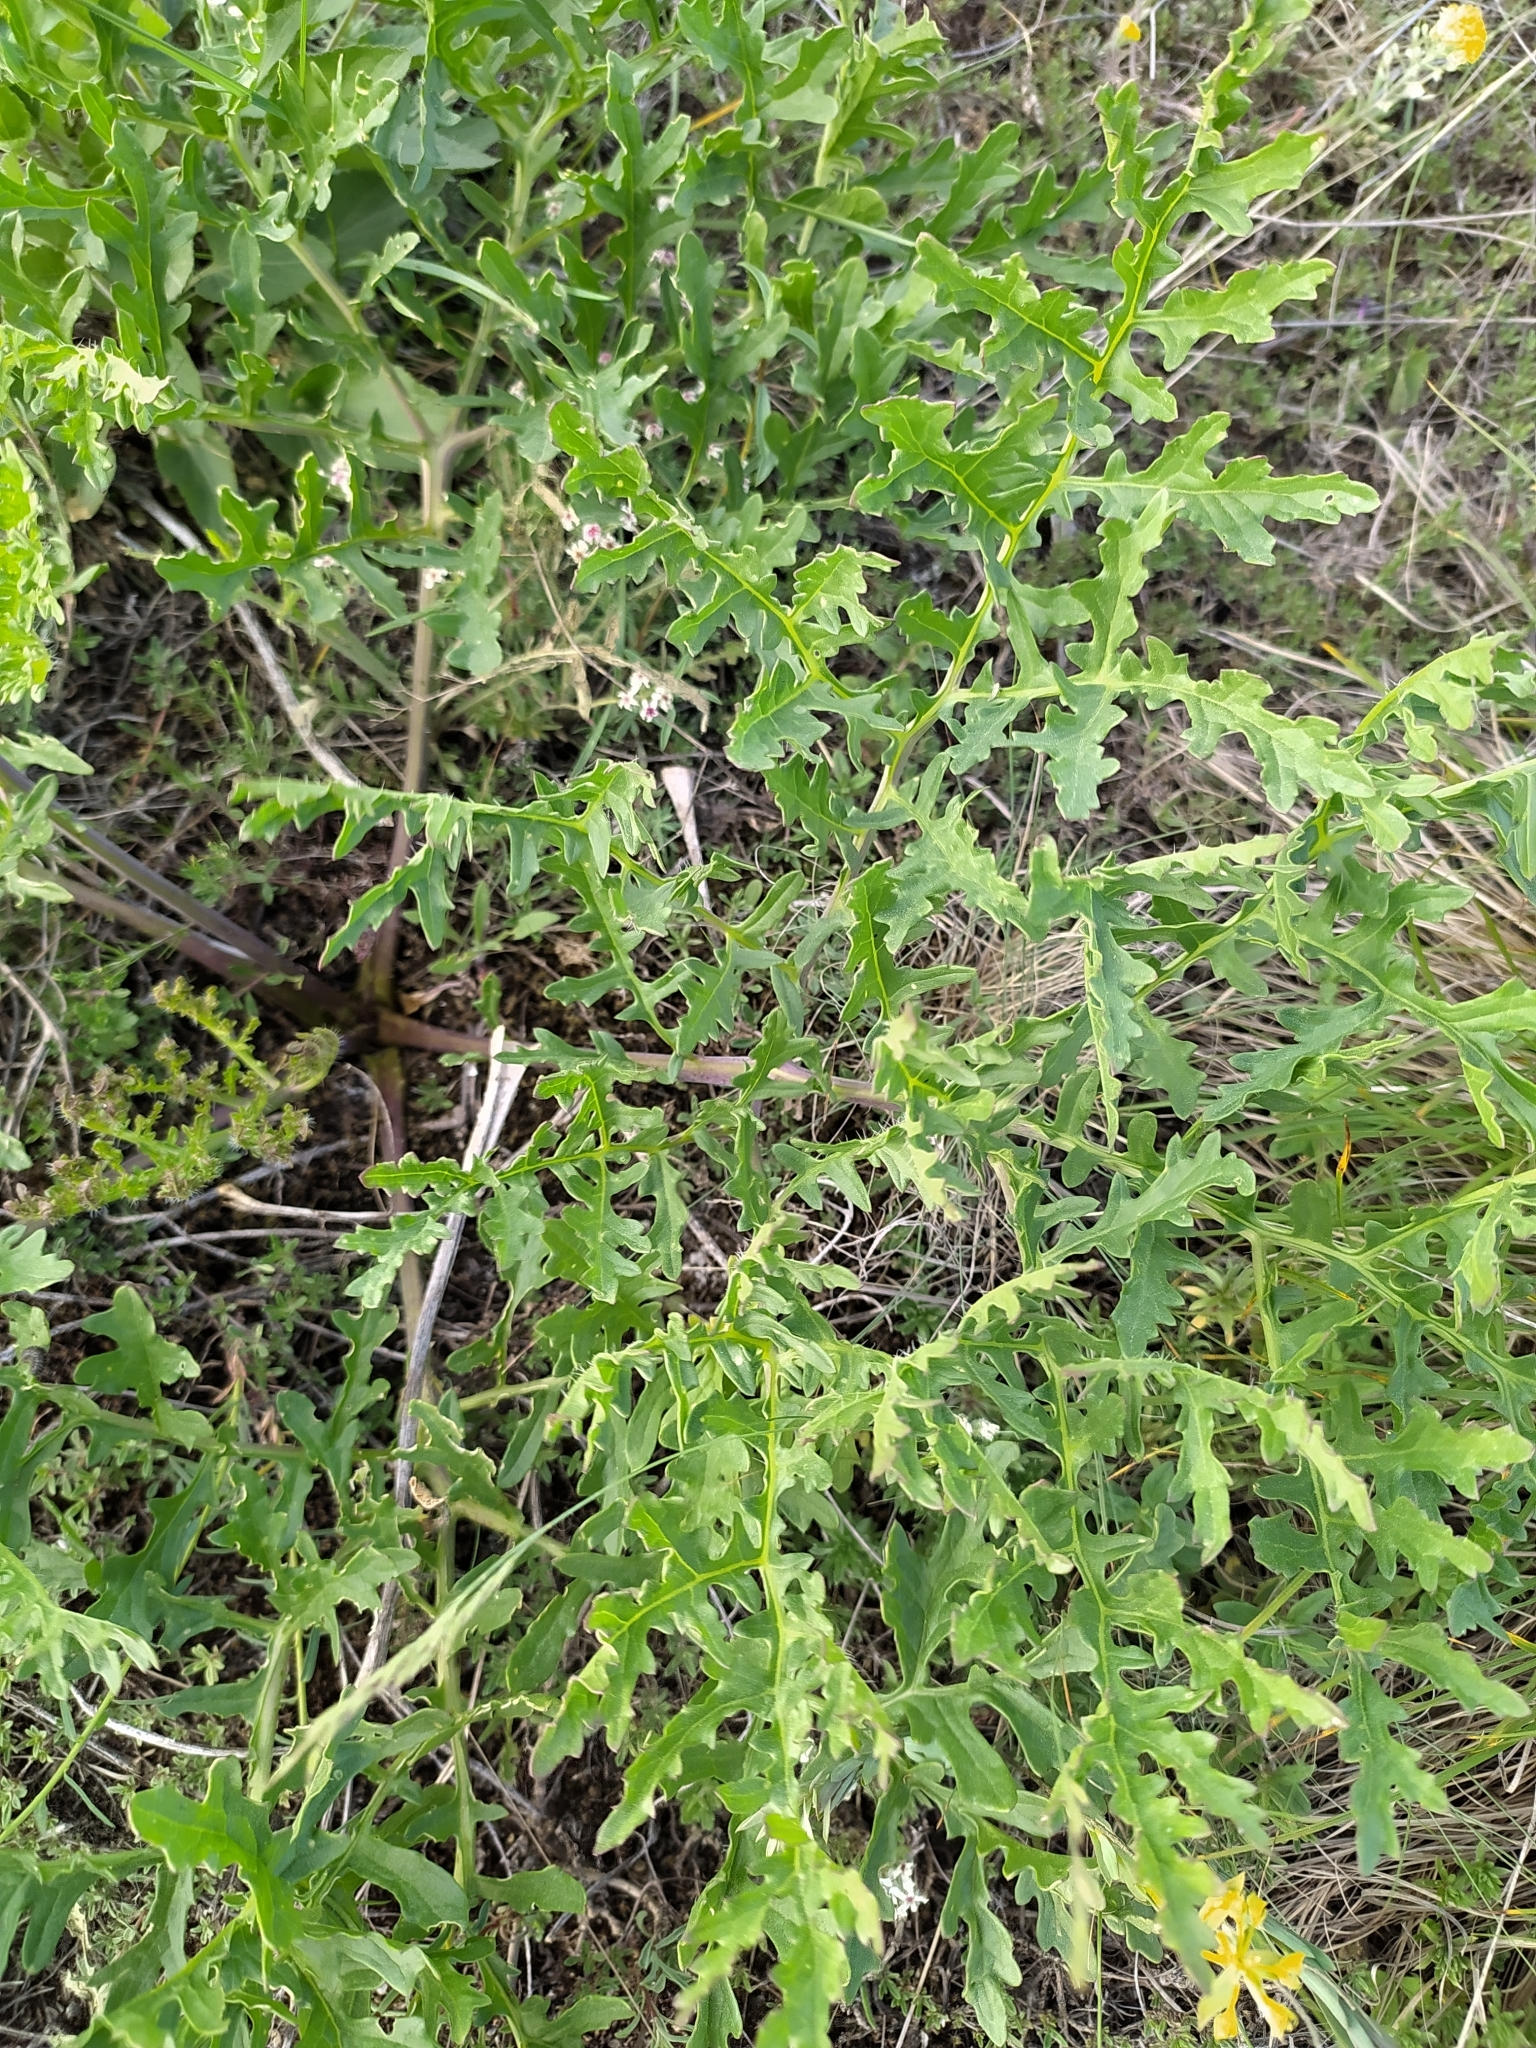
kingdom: Plantae
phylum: Tracheophyta
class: Magnoliopsida
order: Brassicales
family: Brassicaceae
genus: Crambe
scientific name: Crambe tataria
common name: Tartarian breadplant
